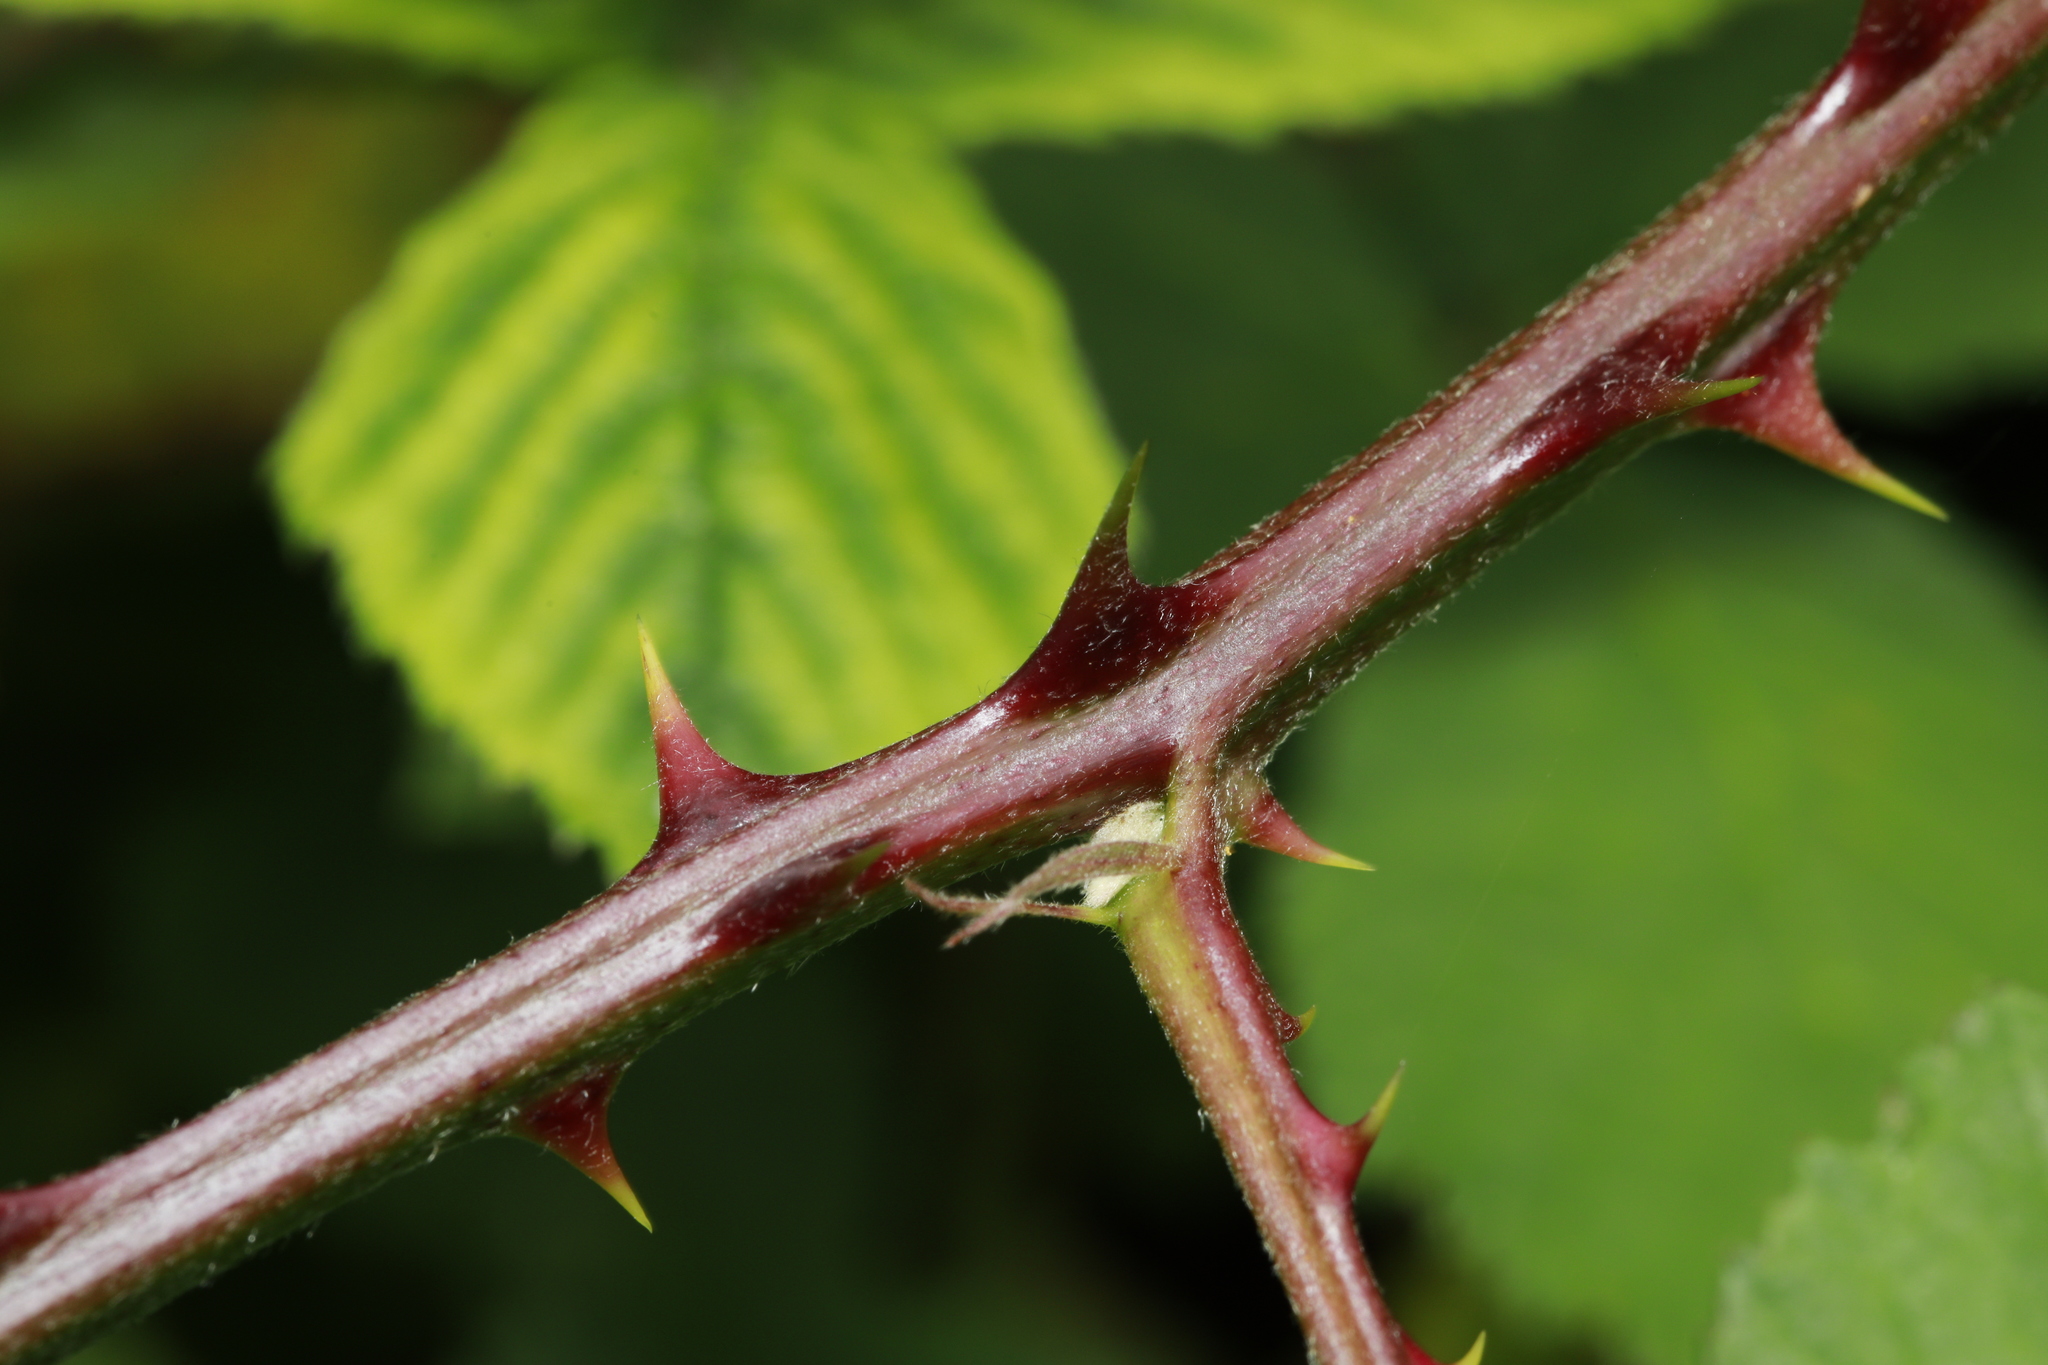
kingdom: Plantae
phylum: Tracheophyta
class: Magnoliopsida
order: Rosales
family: Rosaceae
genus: Rubus
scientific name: Rubus armeniacus
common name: Himalayan blackberry
